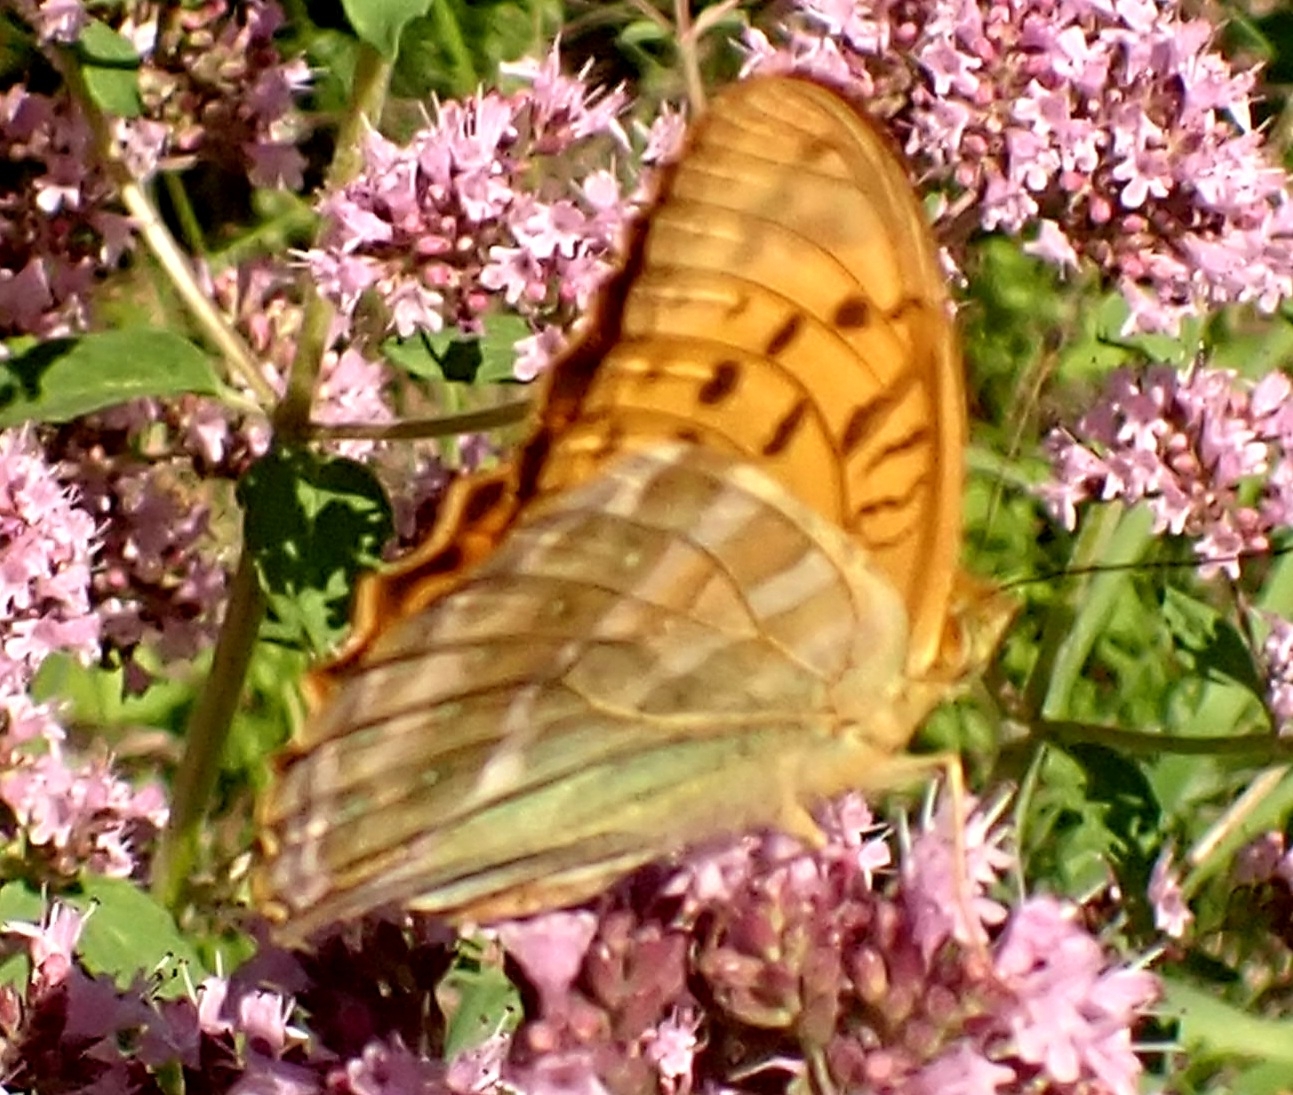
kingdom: Animalia
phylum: Arthropoda
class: Insecta
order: Lepidoptera
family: Nymphalidae
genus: Argynnis
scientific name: Argynnis paphia
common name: Silver-washed fritillary
